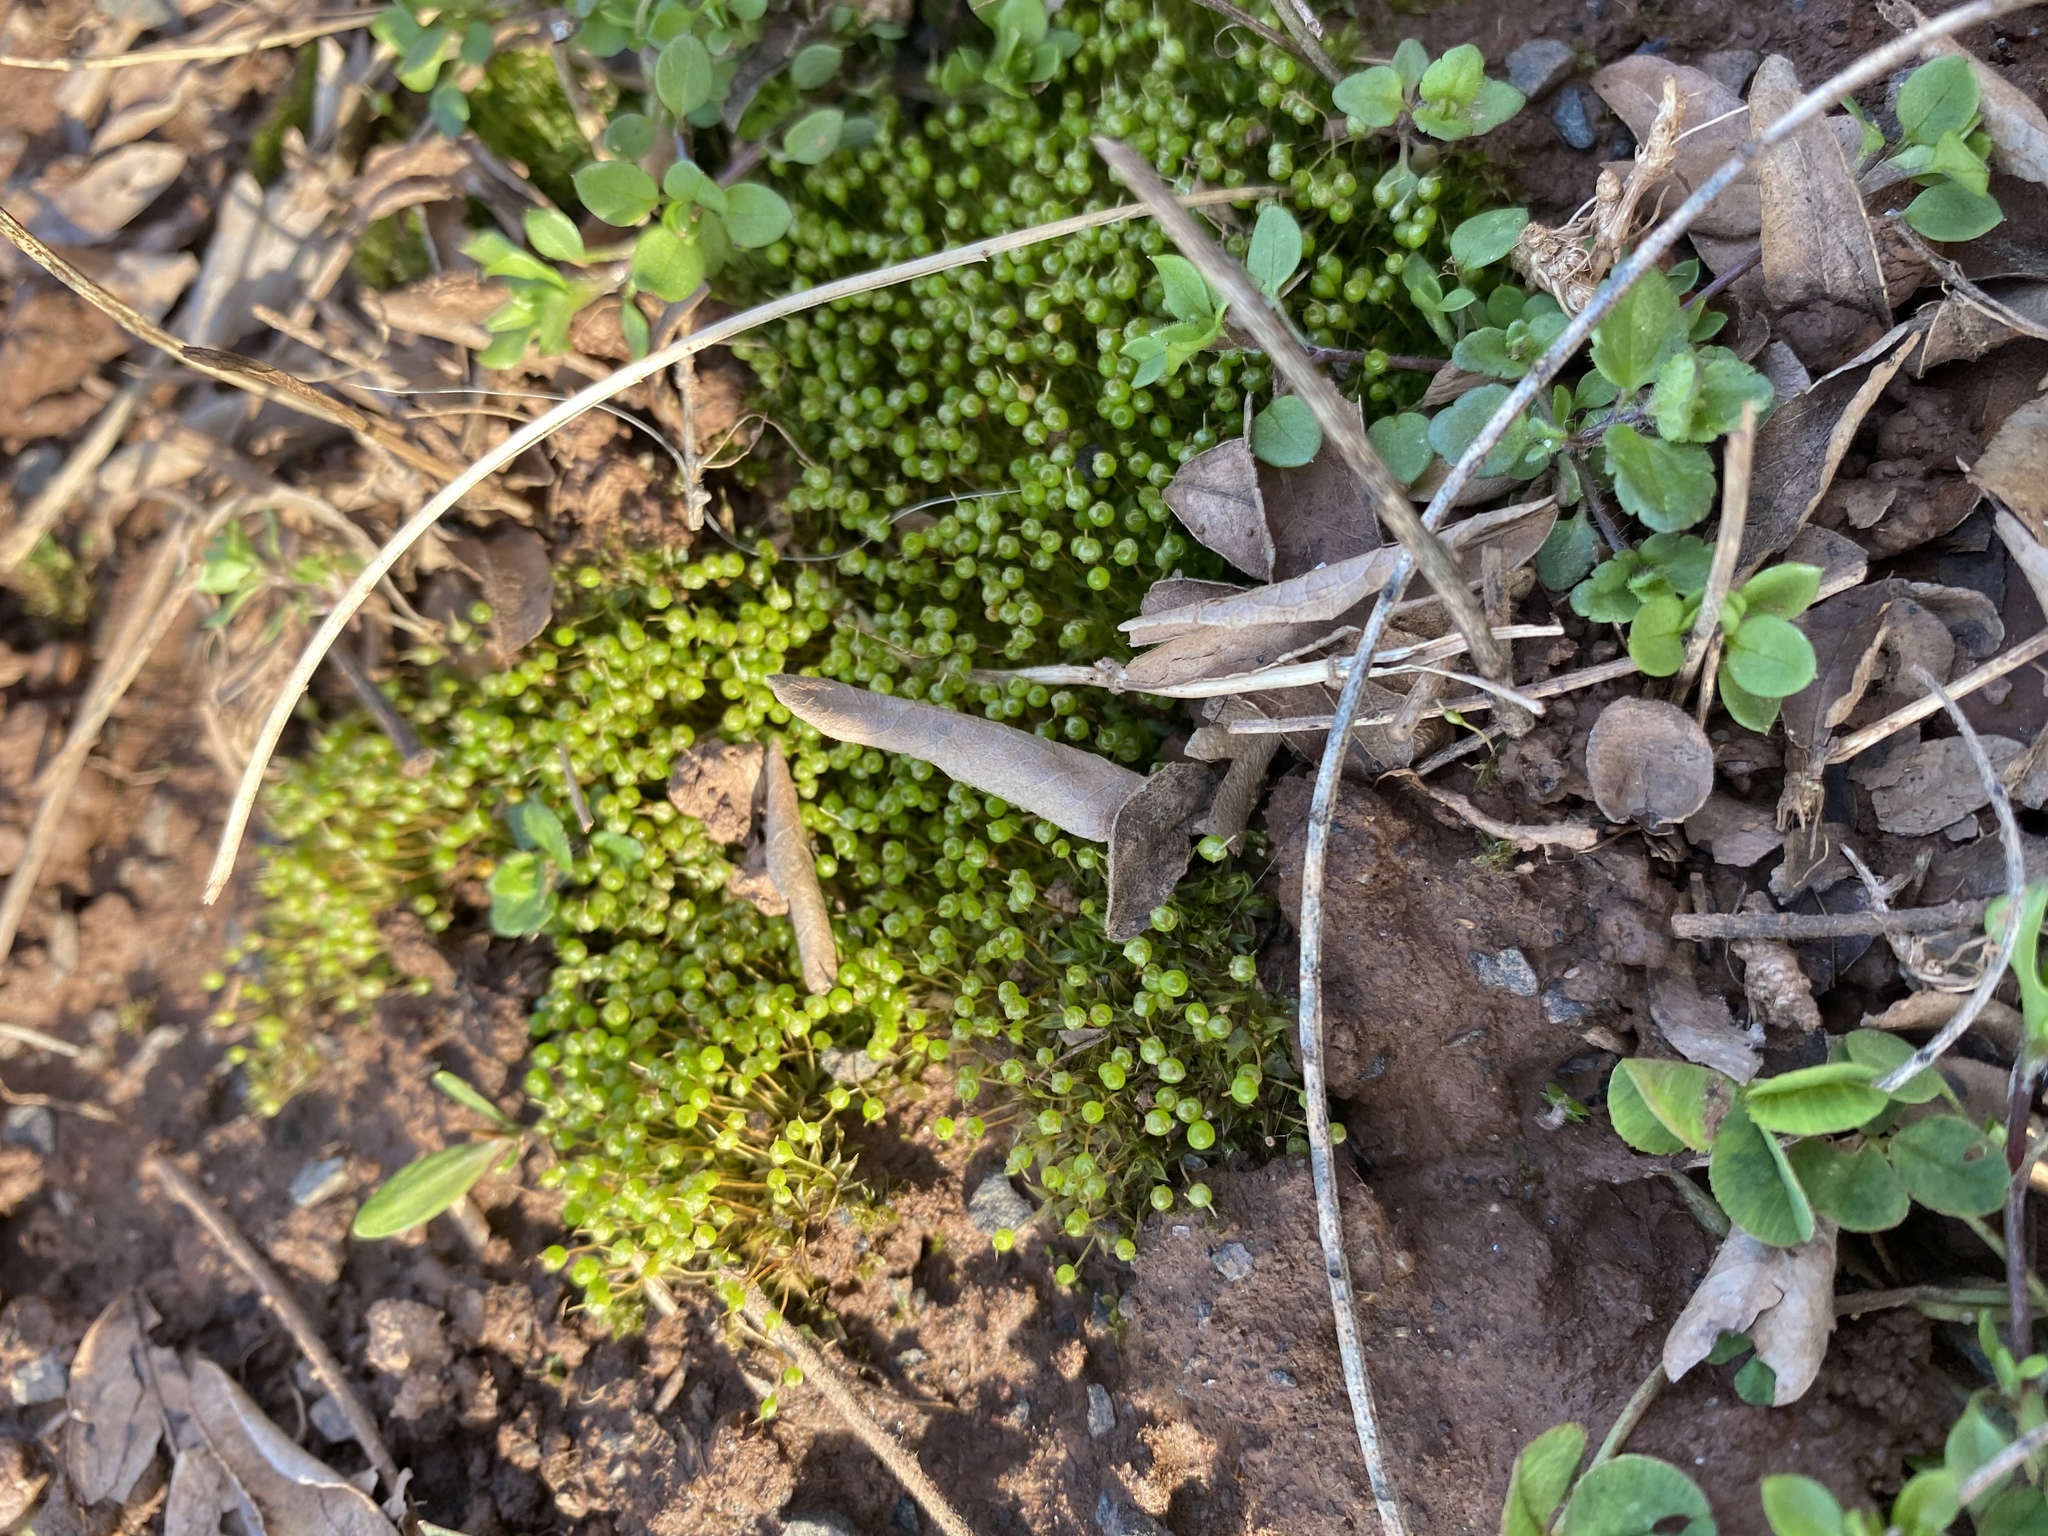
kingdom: Plantae
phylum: Bryophyta
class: Bryopsida
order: Funariales
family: Funariaceae
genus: Physcomitrium
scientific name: Physcomitrium pyriforme
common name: Common bladder-moss
